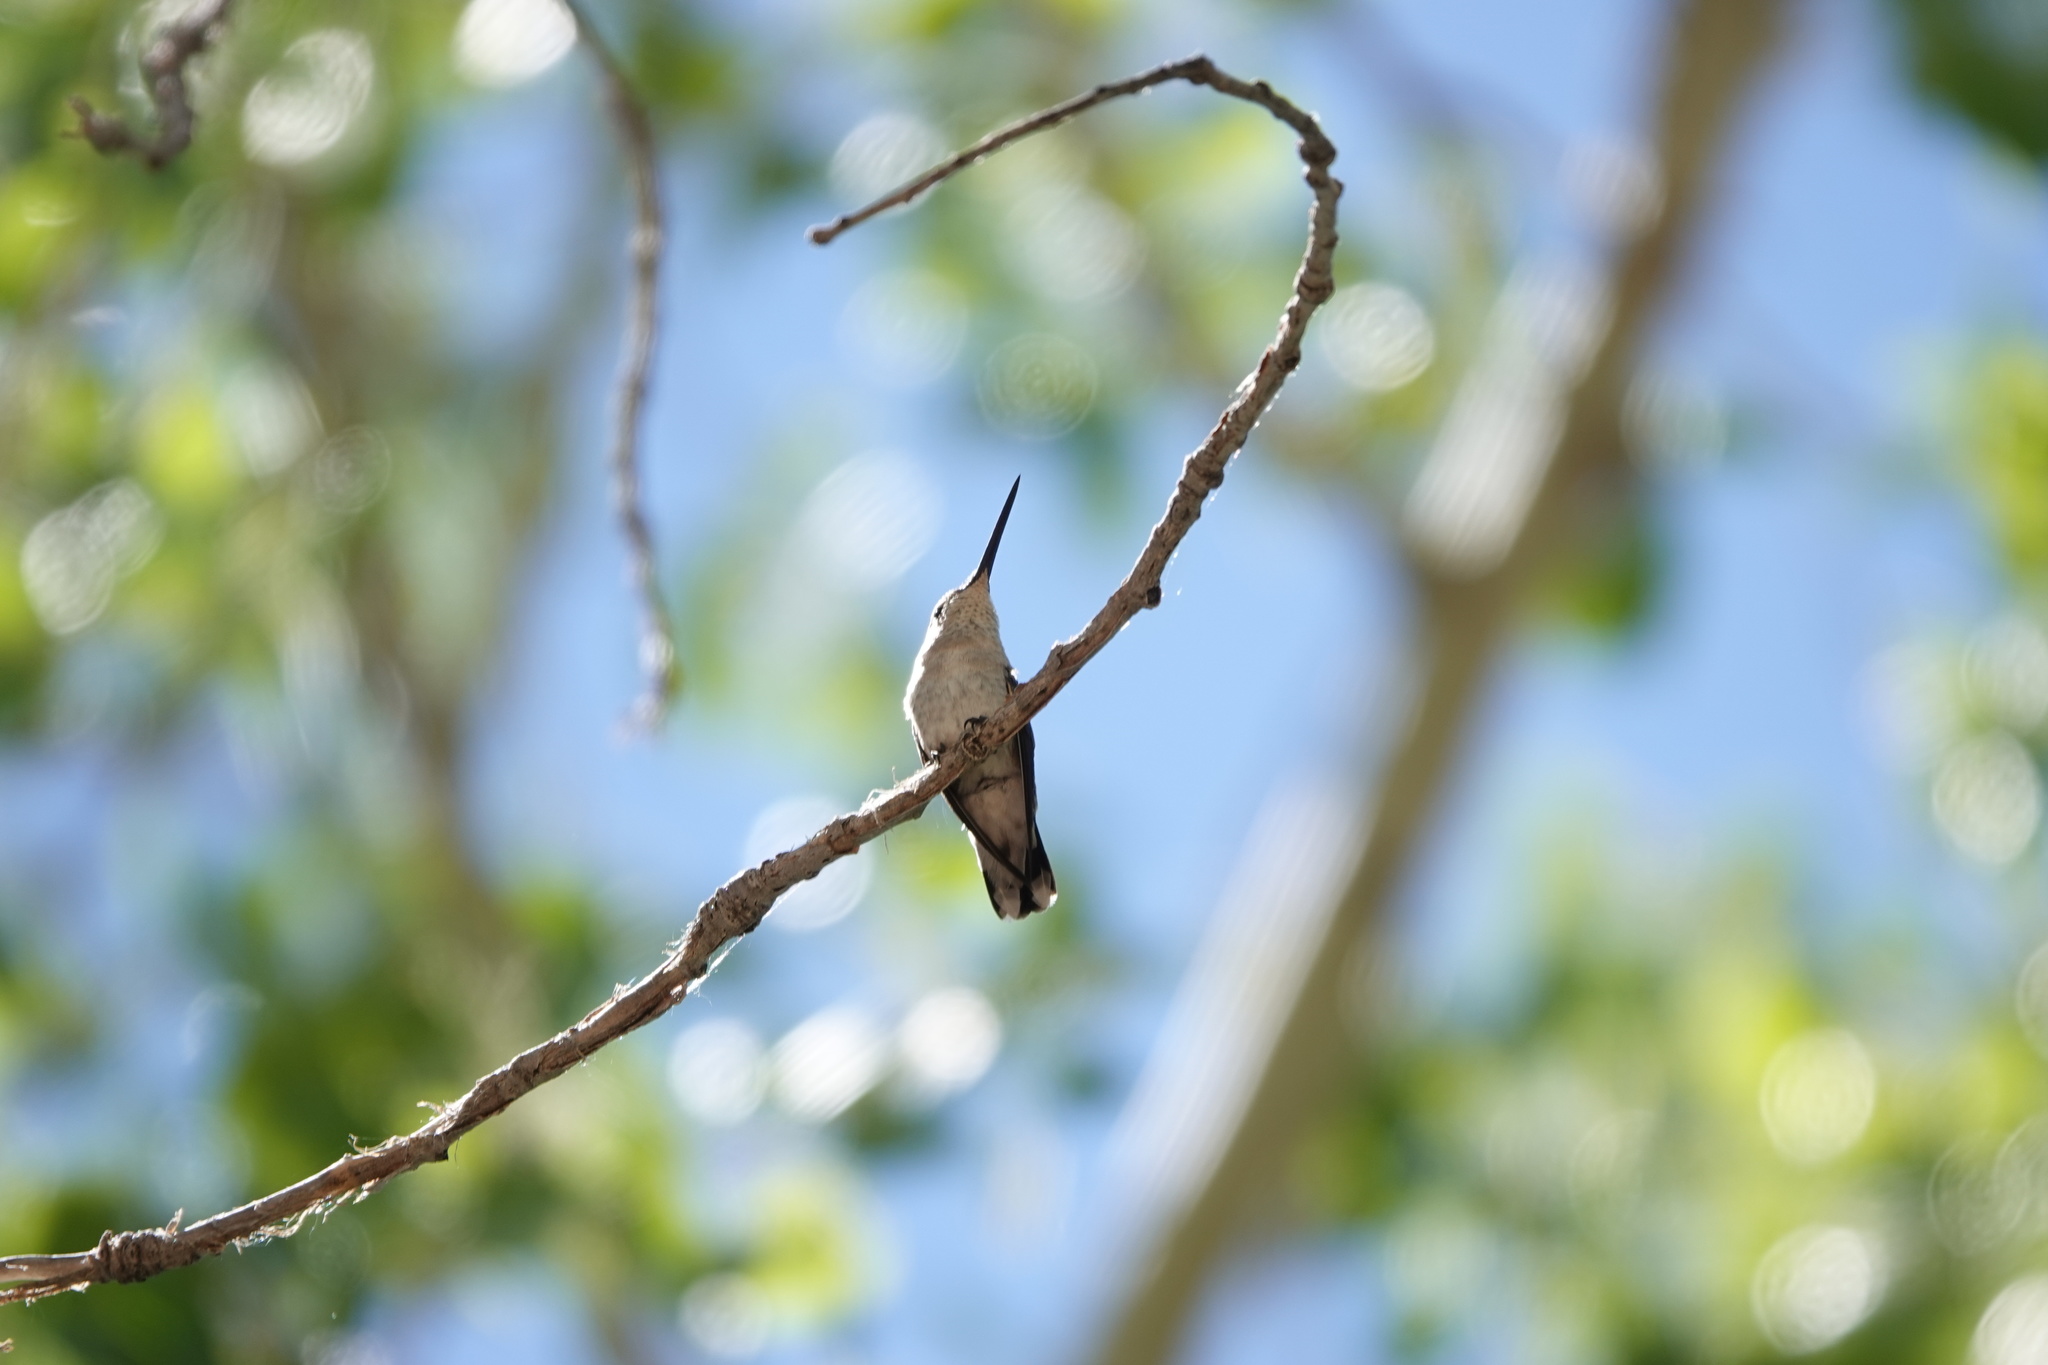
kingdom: Animalia
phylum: Chordata
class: Aves
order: Apodiformes
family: Trochilidae
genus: Archilochus
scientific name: Archilochus alexandri
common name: Black-chinned hummingbird
